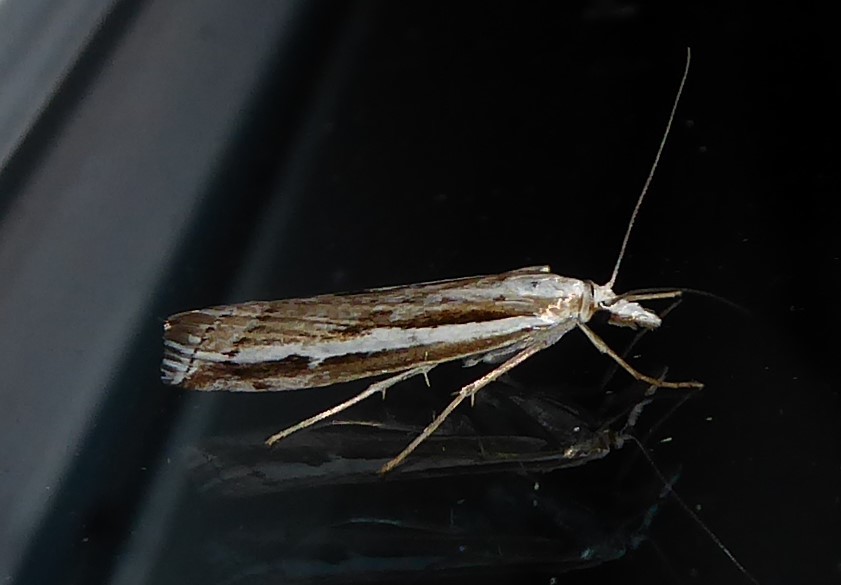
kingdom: Animalia
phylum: Arthropoda
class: Insecta
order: Lepidoptera
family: Crambidae
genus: Orocrambus
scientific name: Orocrambus vittellus
